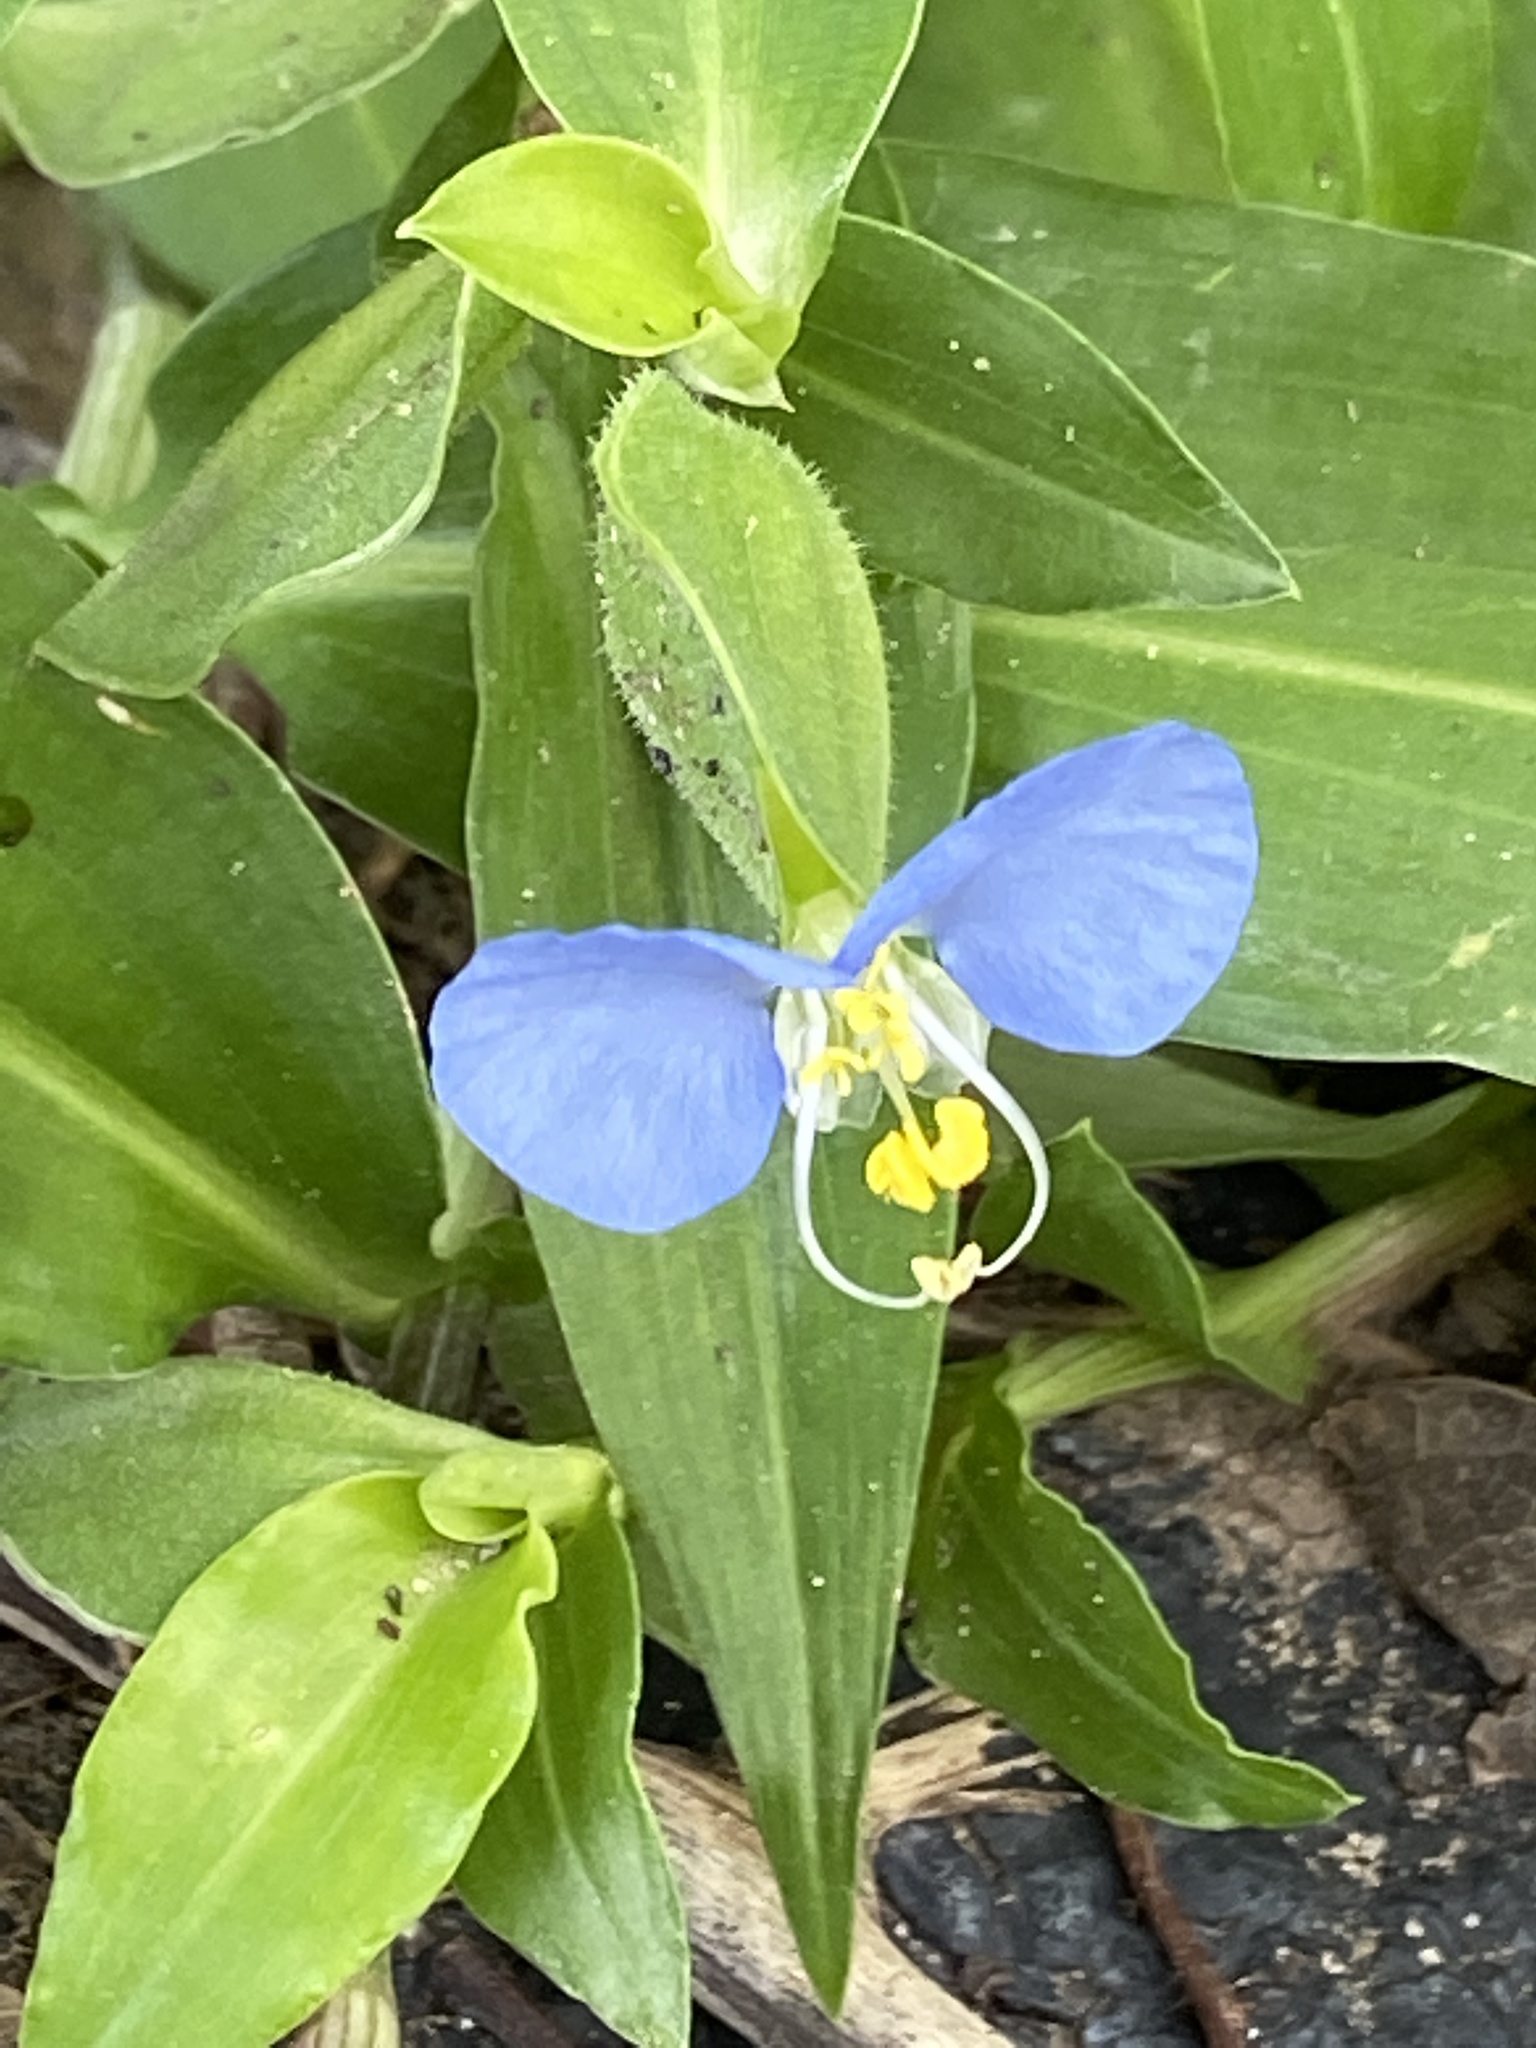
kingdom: Plantae
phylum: Tracheophyta
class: Liliopsida
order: Commelinales
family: Commelinaceae
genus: Commelina
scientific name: Commelina erecta
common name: Blousel blommetjie
